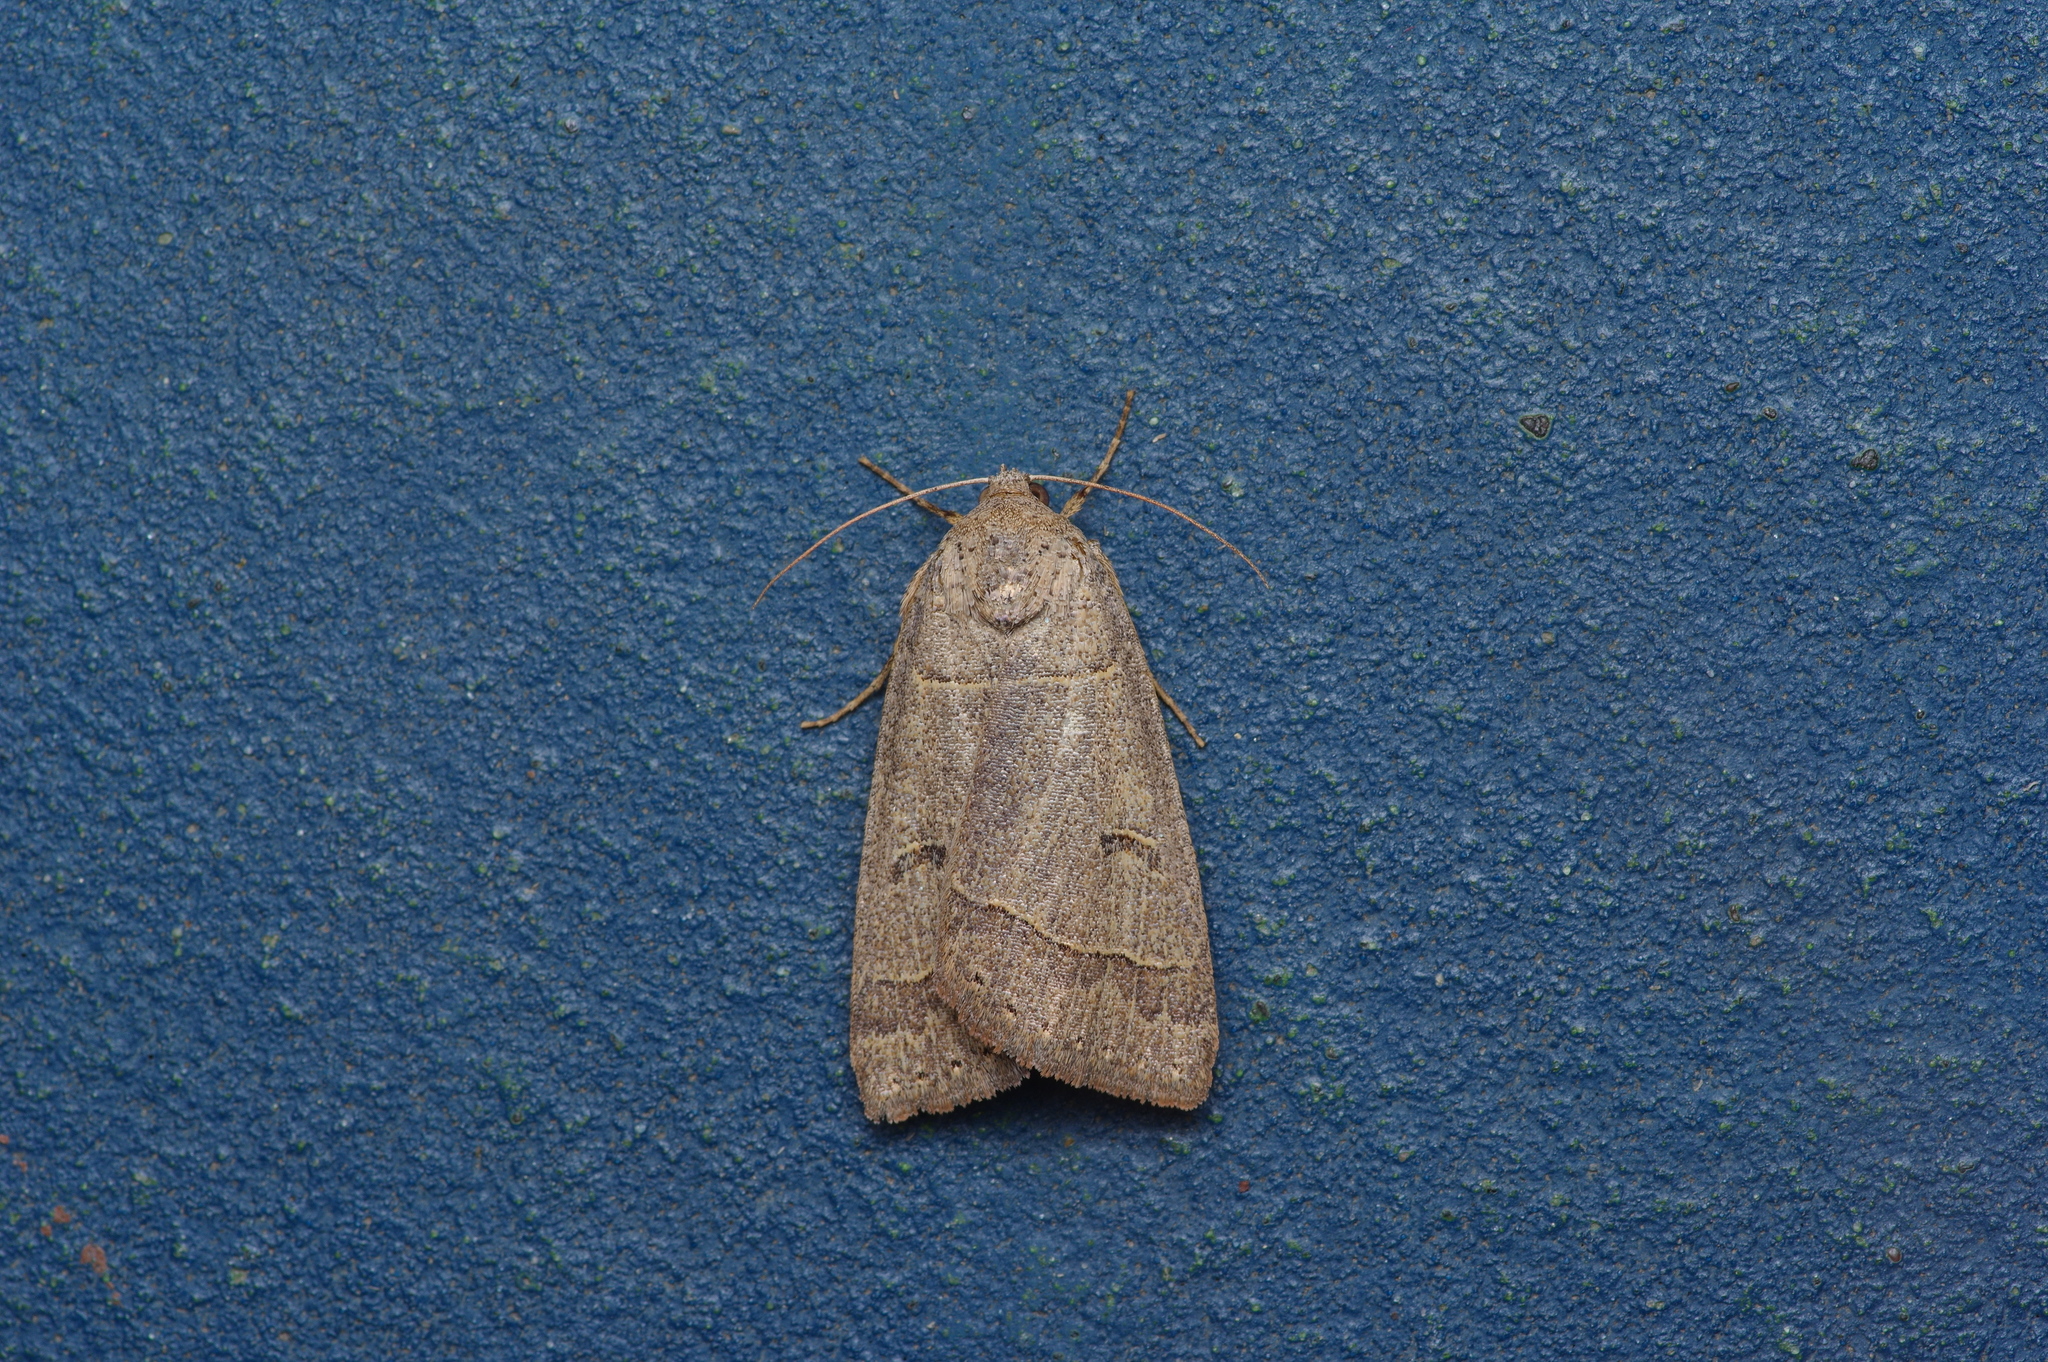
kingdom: Animalia
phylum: Arthropoda
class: Insecta
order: Lepidoptera
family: Erebidae
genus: Phoberia
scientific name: Phoberia atomaris
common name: Common oak moth
